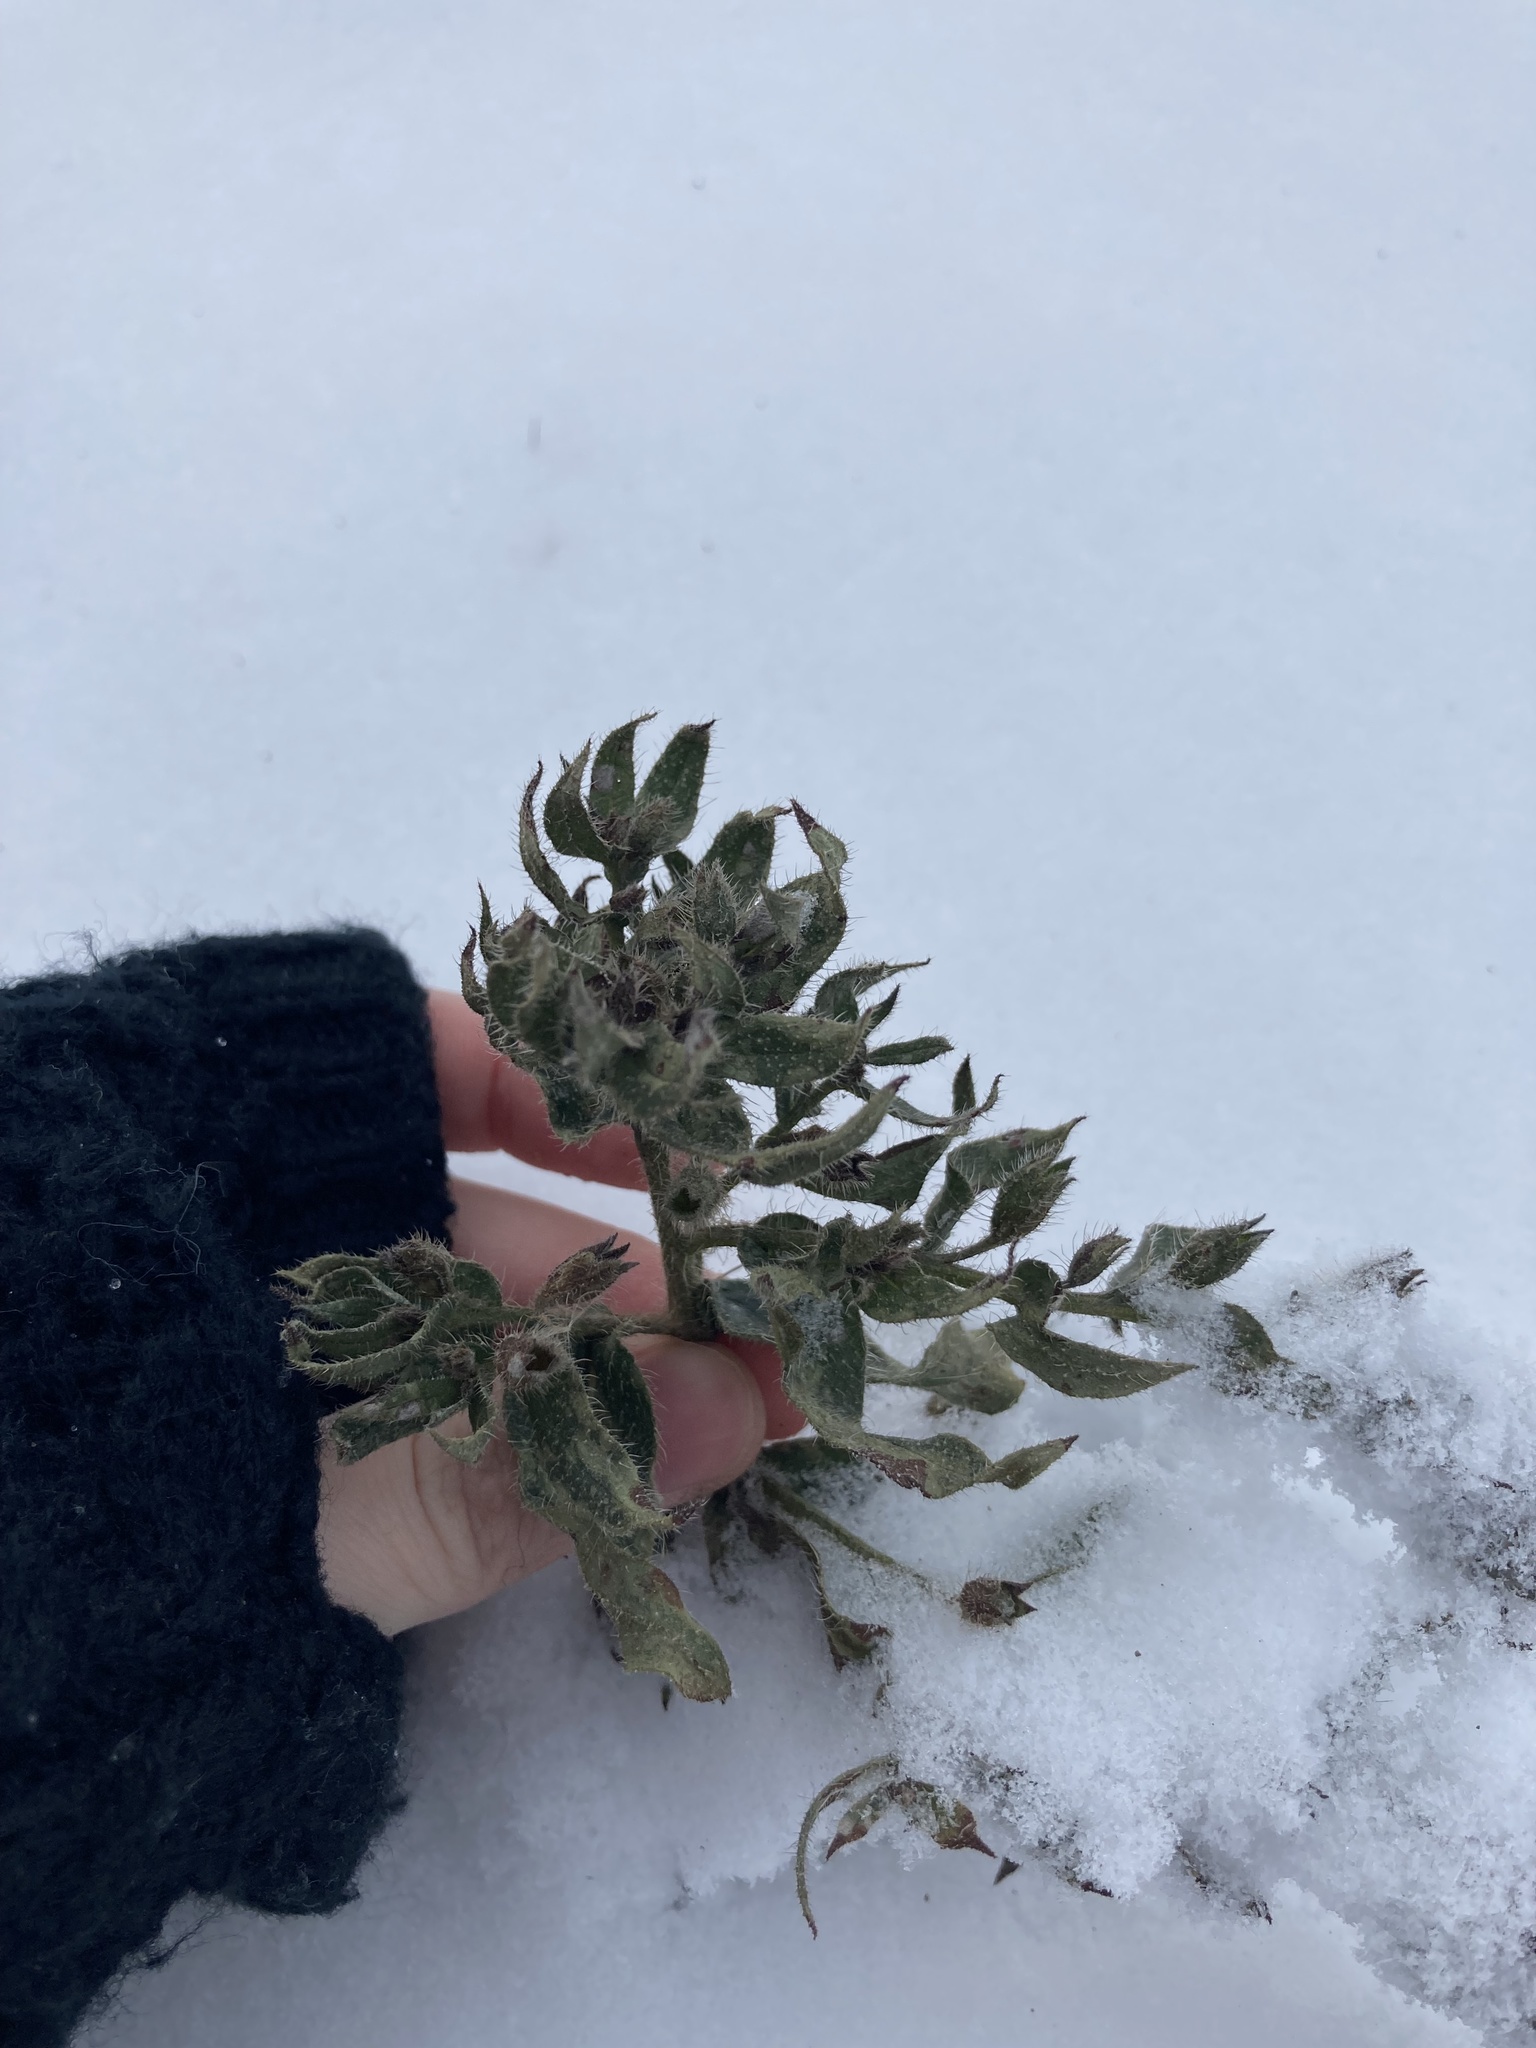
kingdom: Plantae
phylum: Tracheophyta
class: Magnoliopsida
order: Boraginales
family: Boraginaceae
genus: Nonea
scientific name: Nonea pulla
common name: Brown nonea
